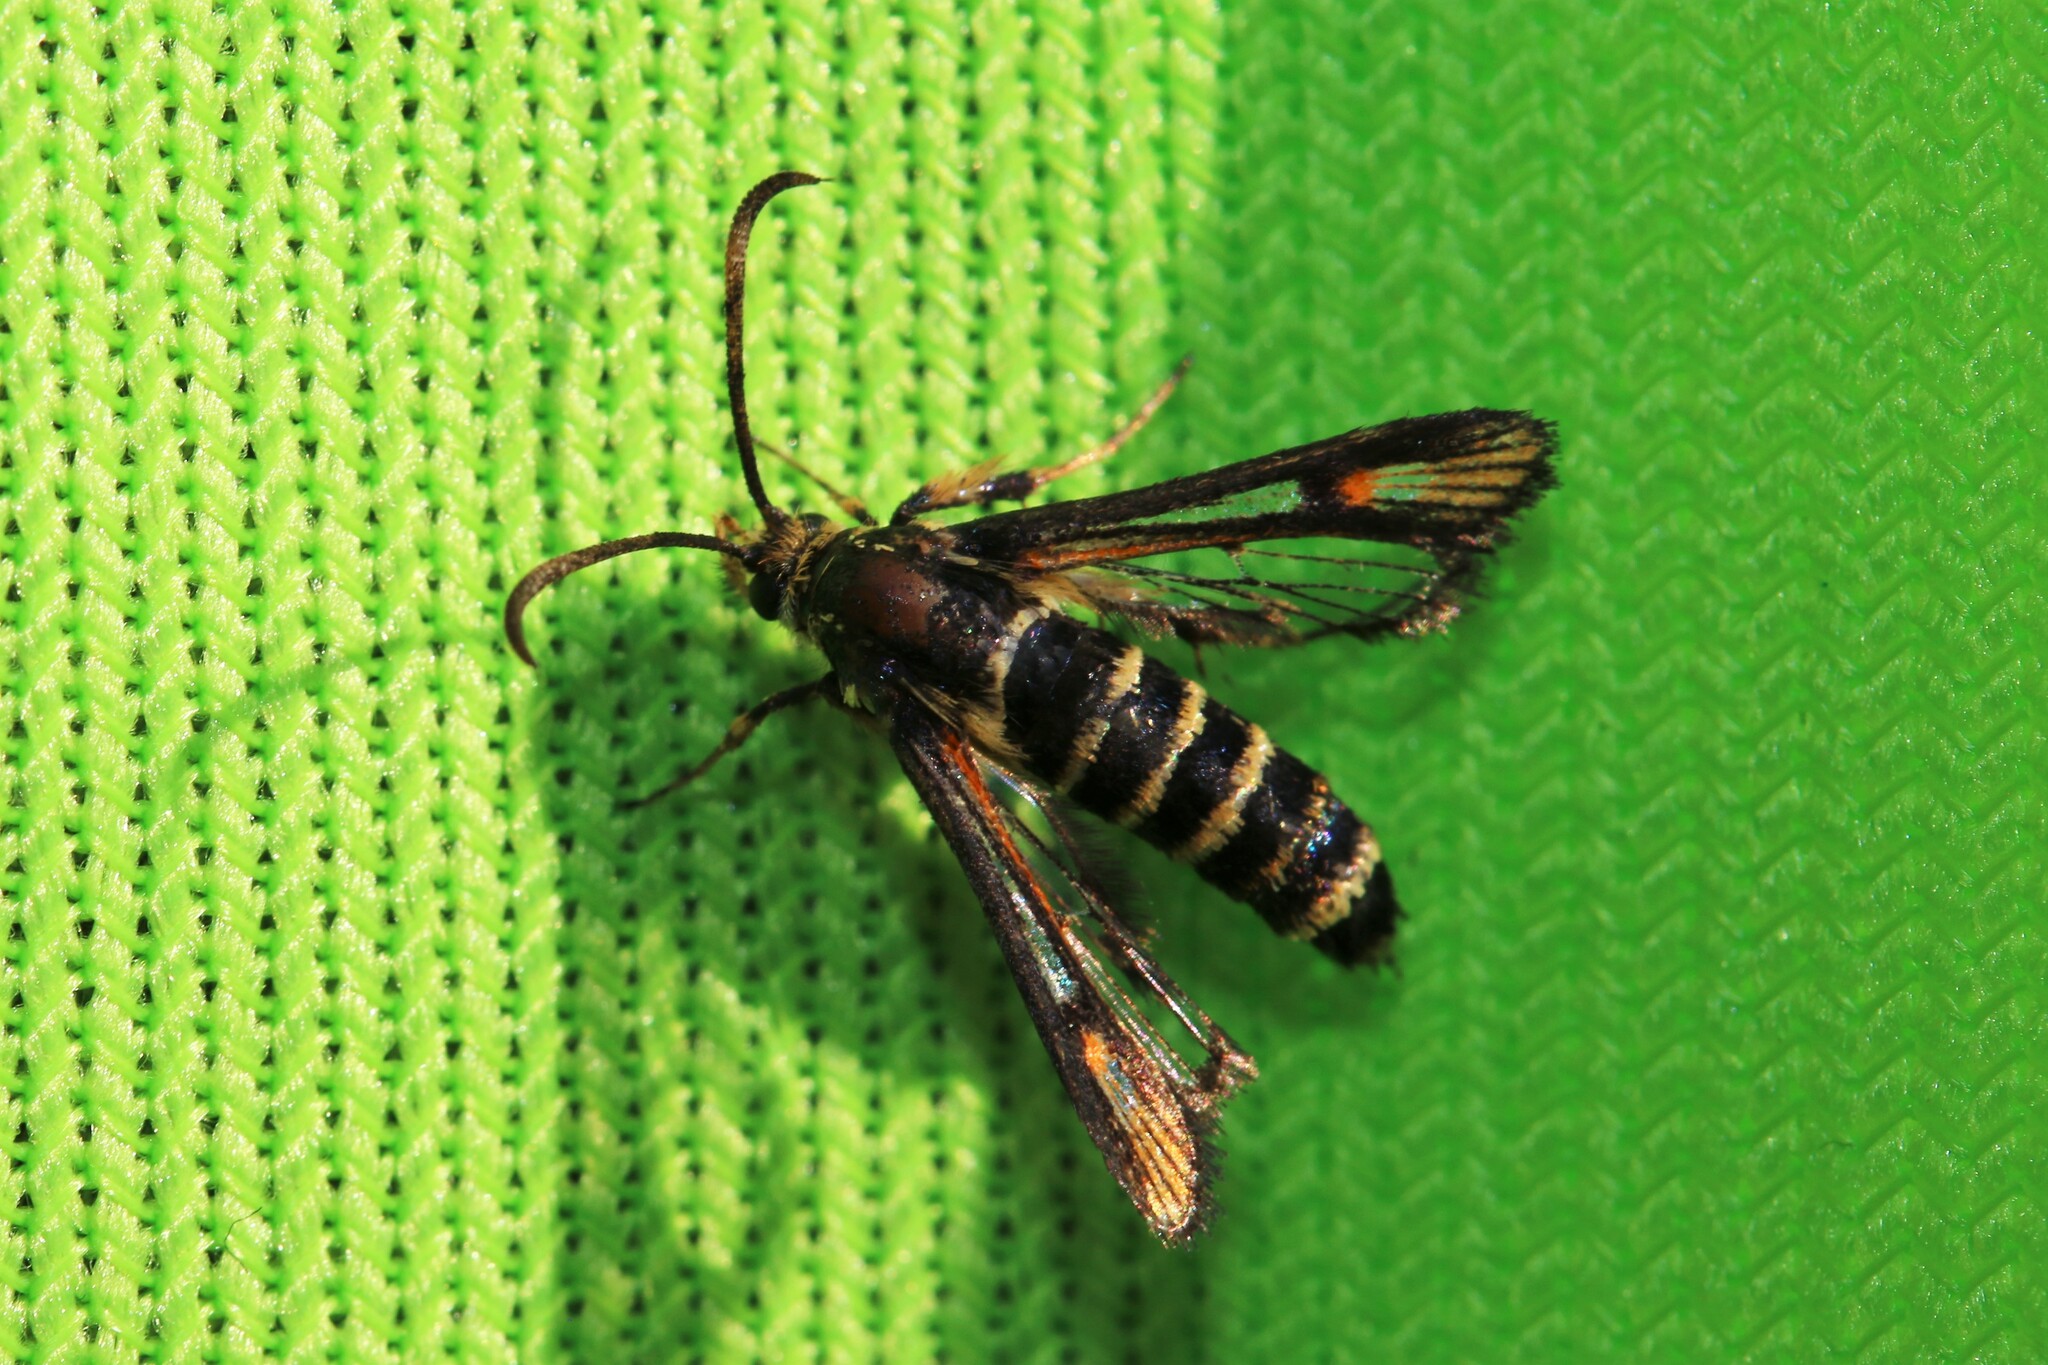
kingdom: Animalia
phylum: Arthropoda
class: Insecta
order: Lepidoptera
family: Sesiidae
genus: Bembecia
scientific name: Bembecia ichneumoniformis
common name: Six-belted clearwing
